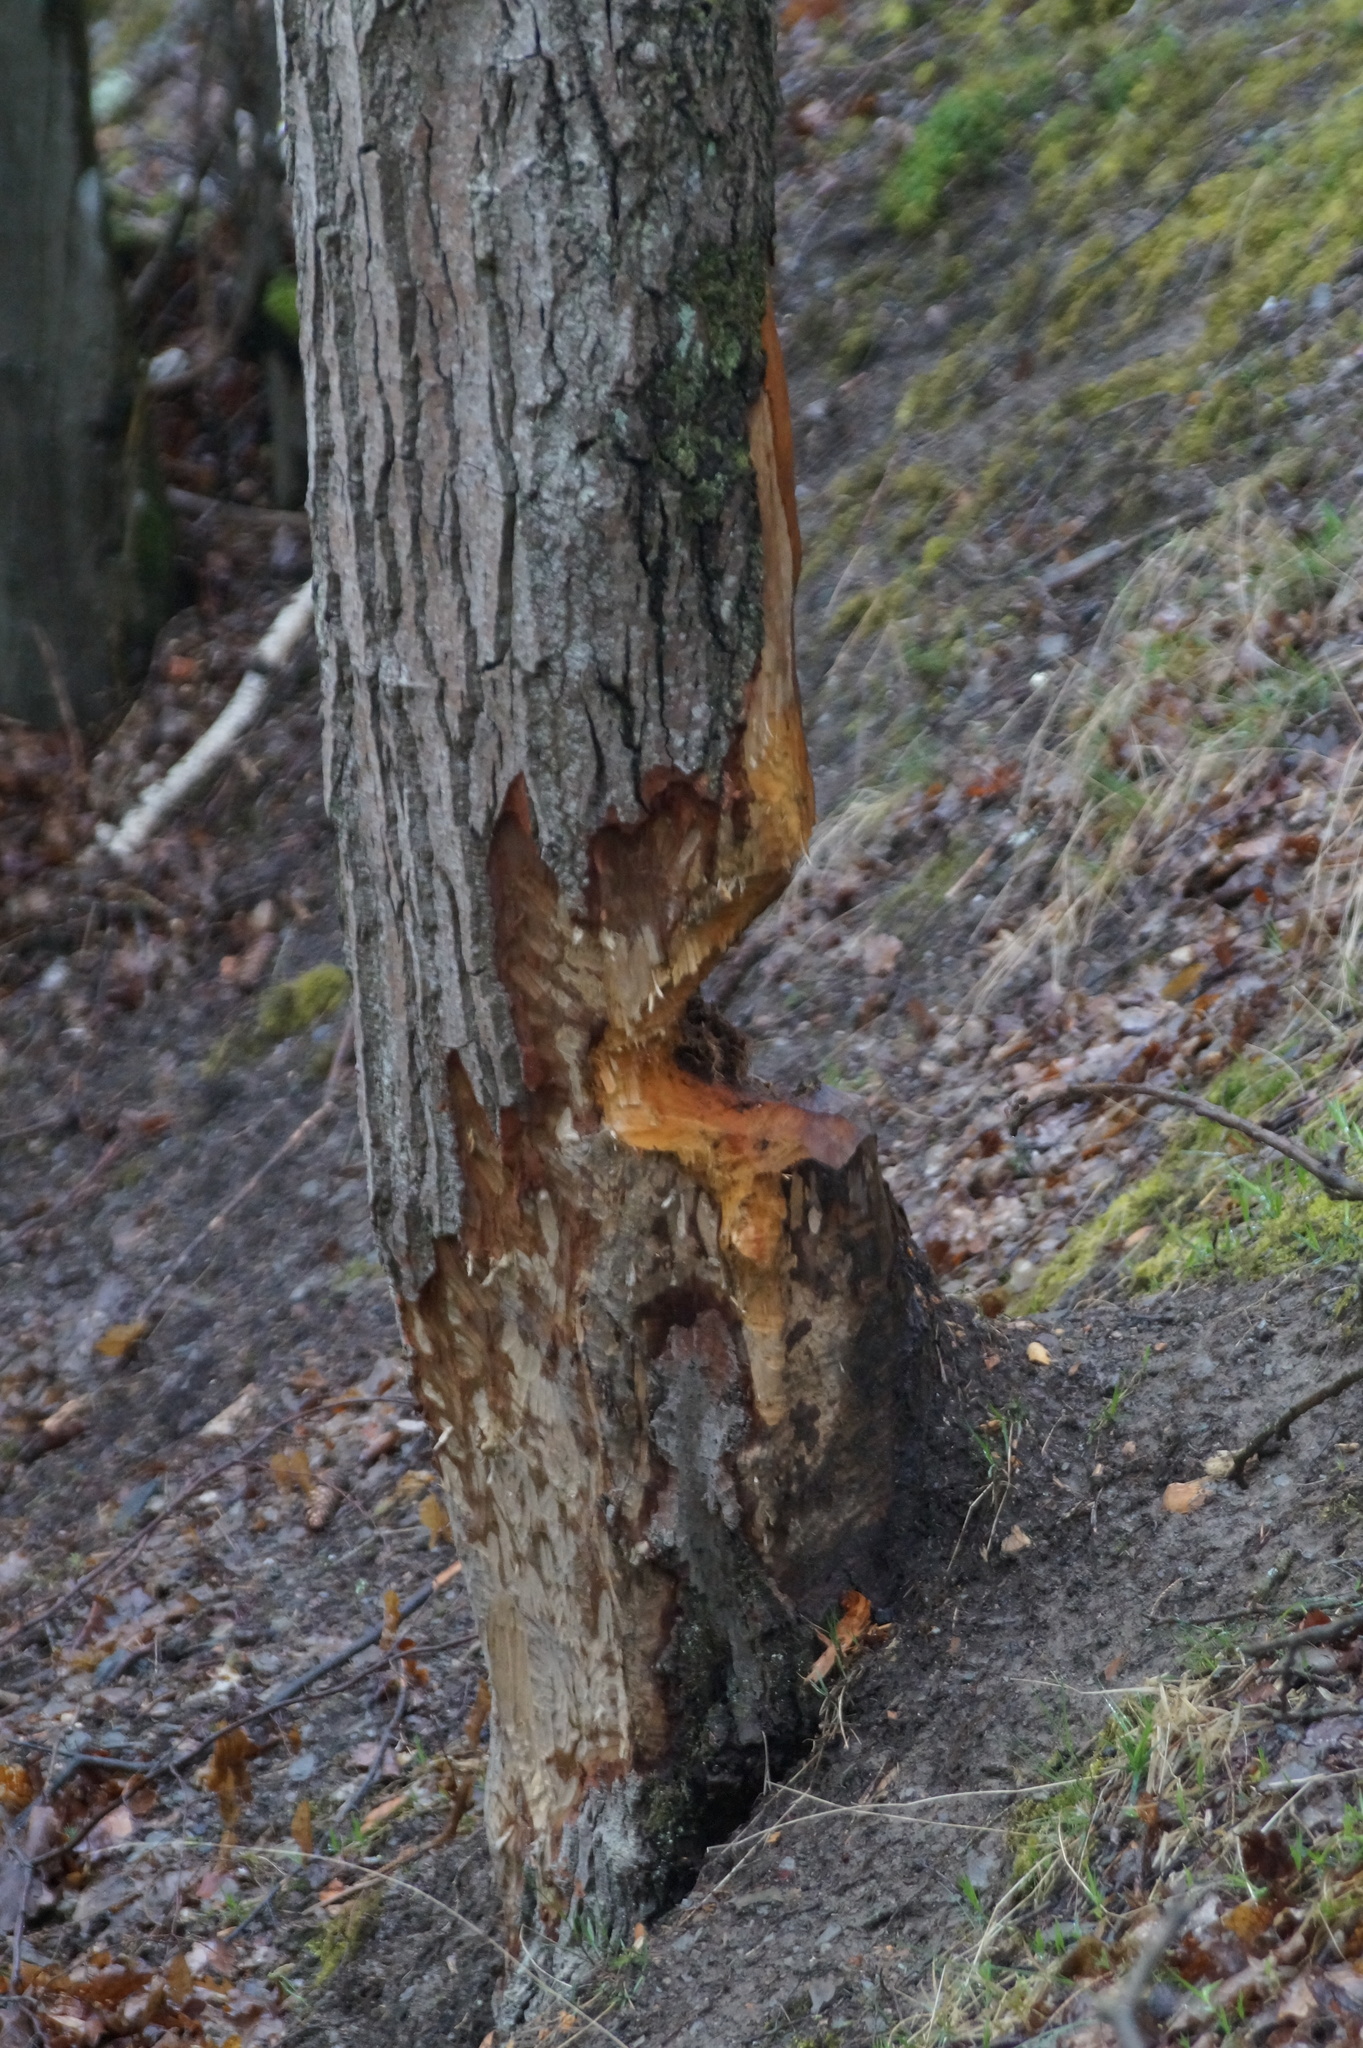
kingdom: Animalia
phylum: Chordata
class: Mammalia
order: Rodentia
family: Castoridae
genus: Castor
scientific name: Castor fiber
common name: Eurasian beaver
